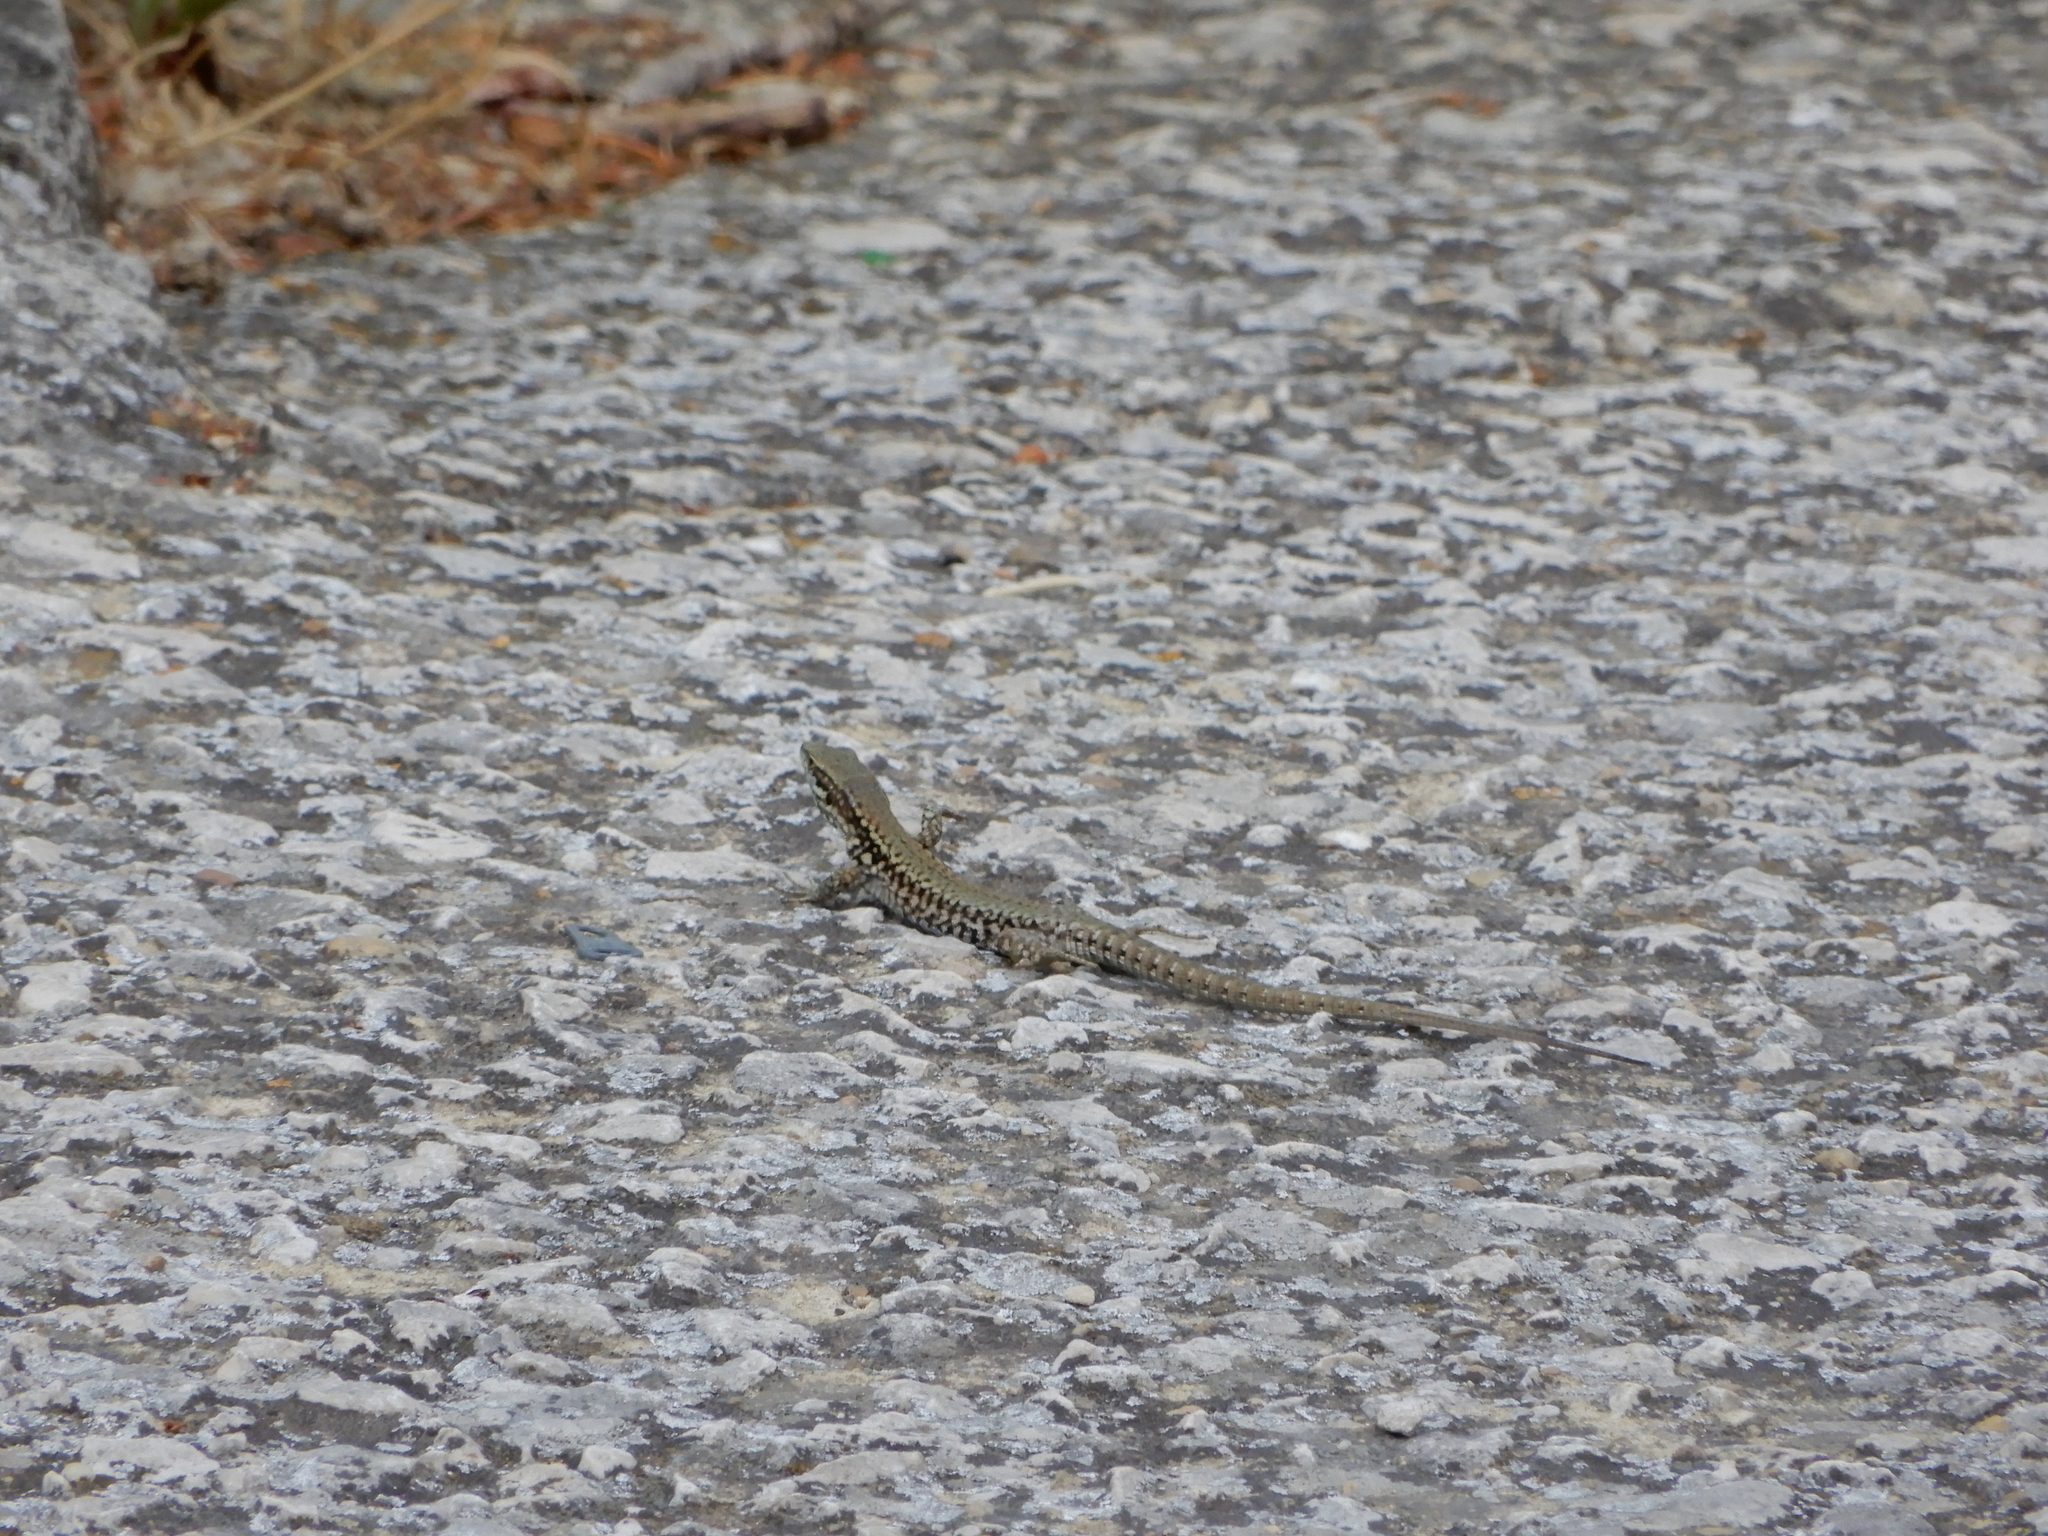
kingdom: Animalia
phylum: Chordata
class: Squamata
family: Lacertidae
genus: Podarcis
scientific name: Podarcis muralis
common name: Common wall lizard
